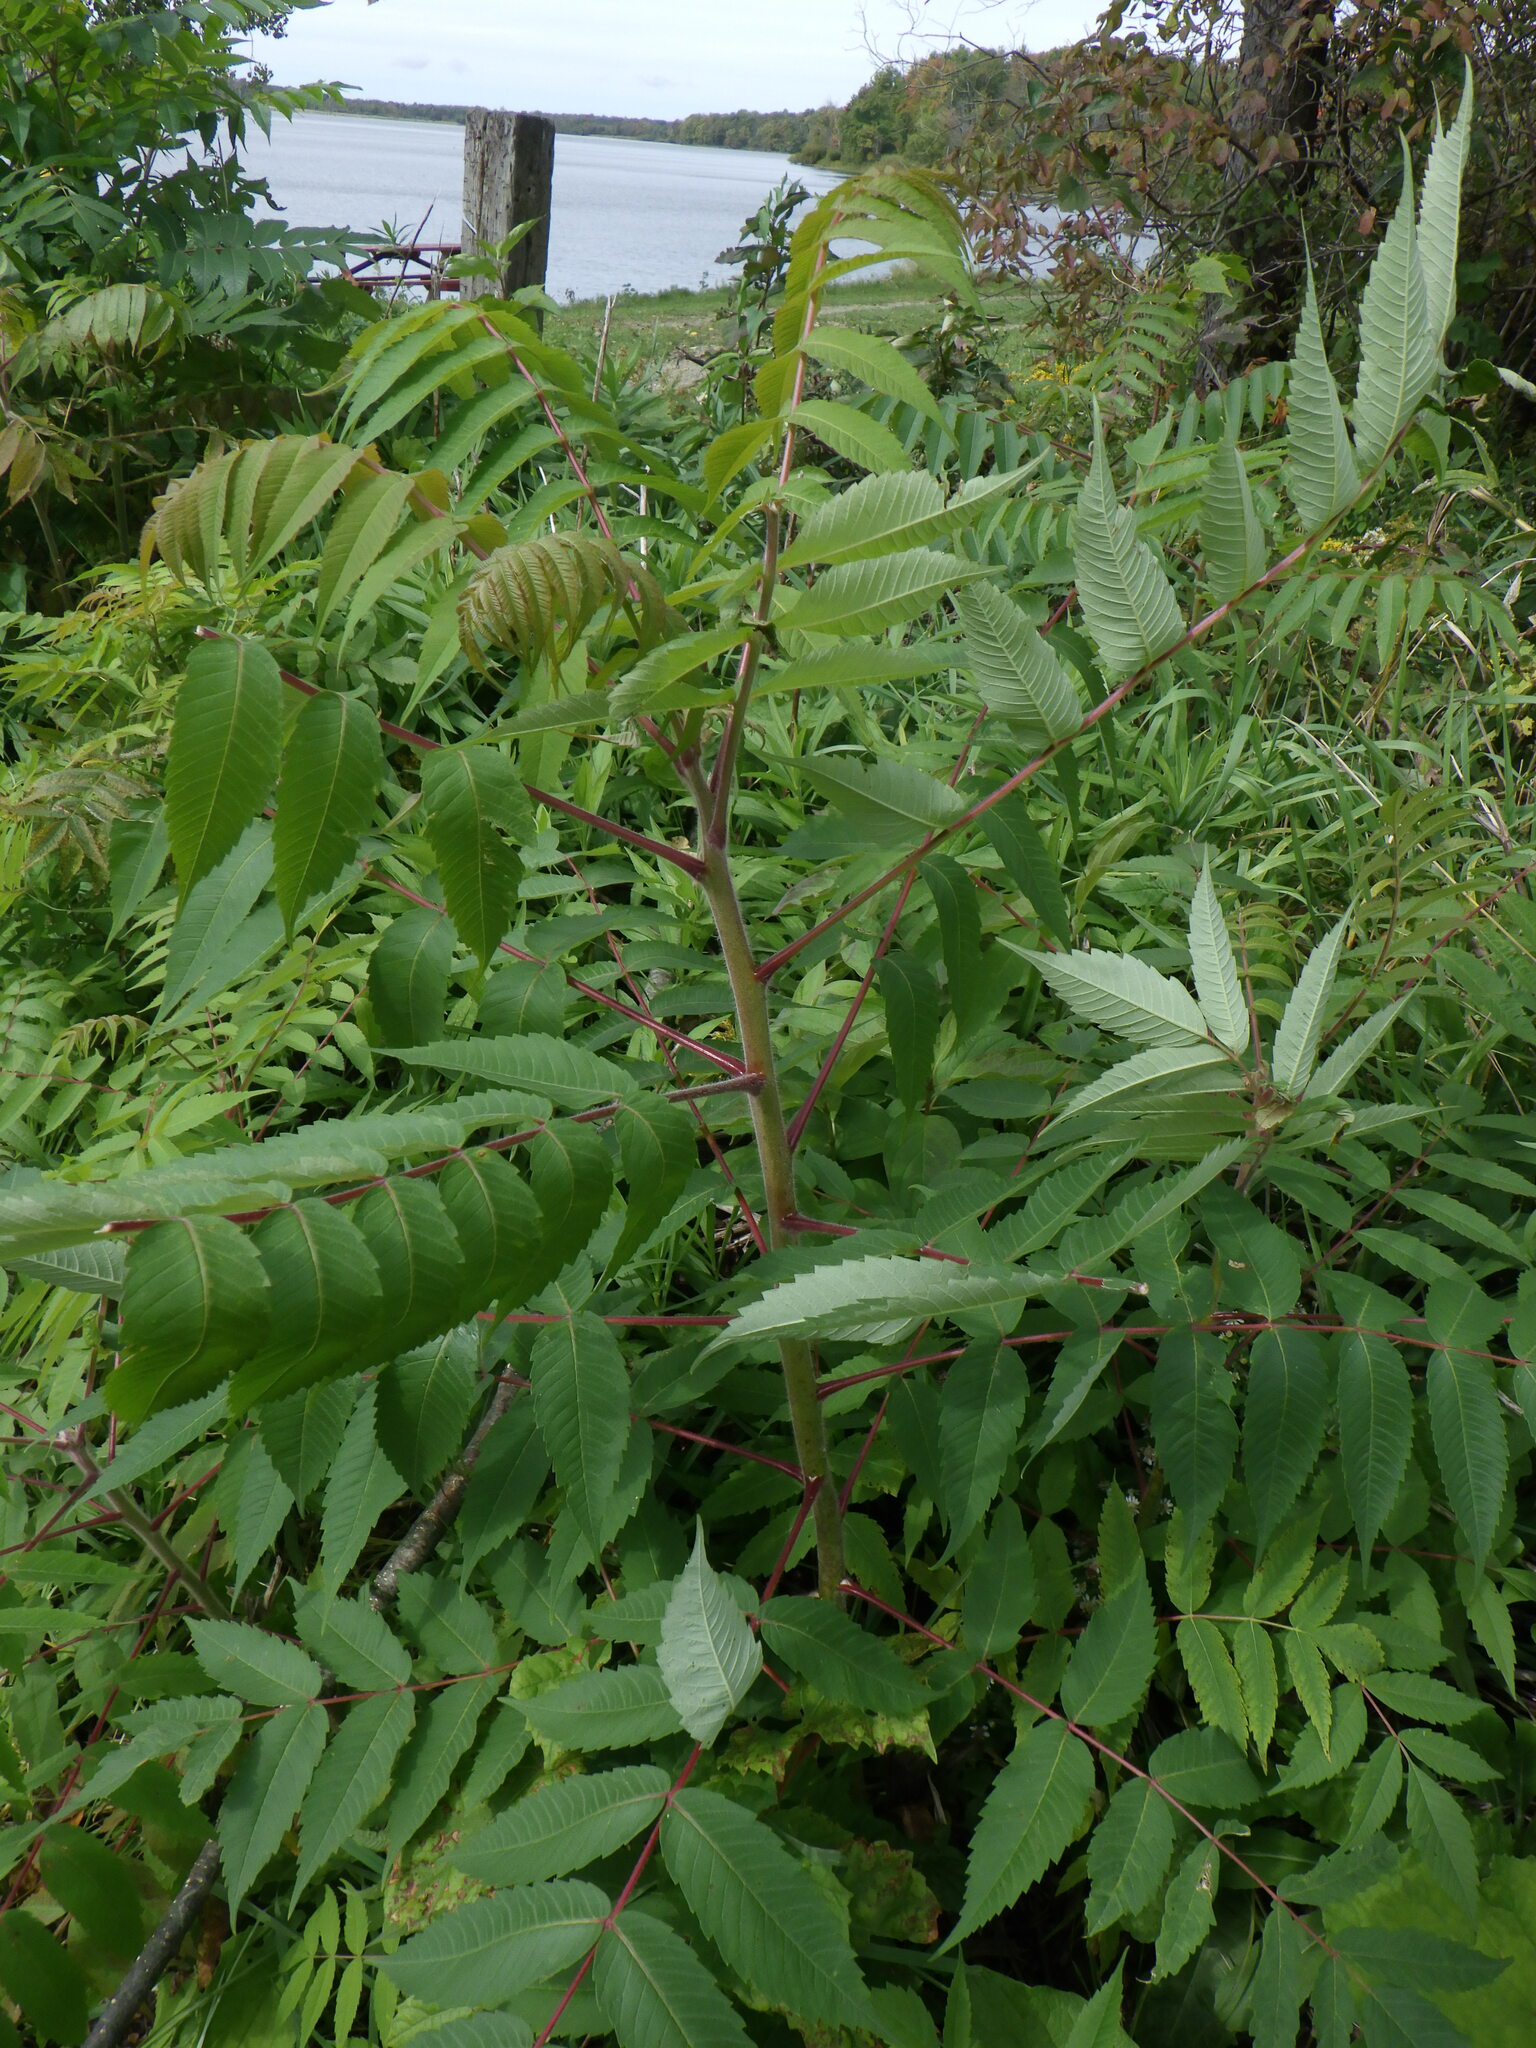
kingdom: Plantae
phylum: Tracheophyta
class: Magnoliopsida
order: Sapindales
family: Anacardiaceae
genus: Rhus
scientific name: Rhus typhina
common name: Staghorn sumac
